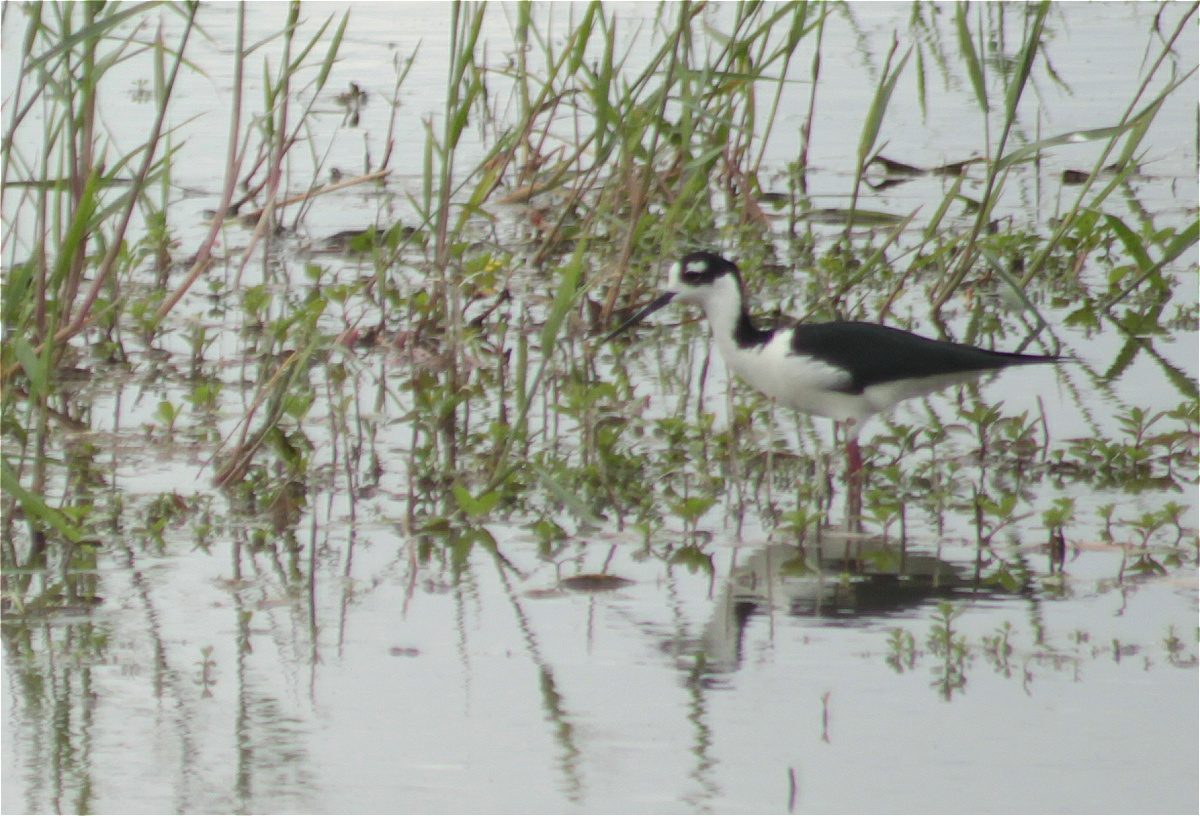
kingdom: Animalia
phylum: Chordata
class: Aves
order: Charadriiformes
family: Recurvirostridae
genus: Himantopus
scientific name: Himantopus mexicanus
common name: Black-necked stilt
